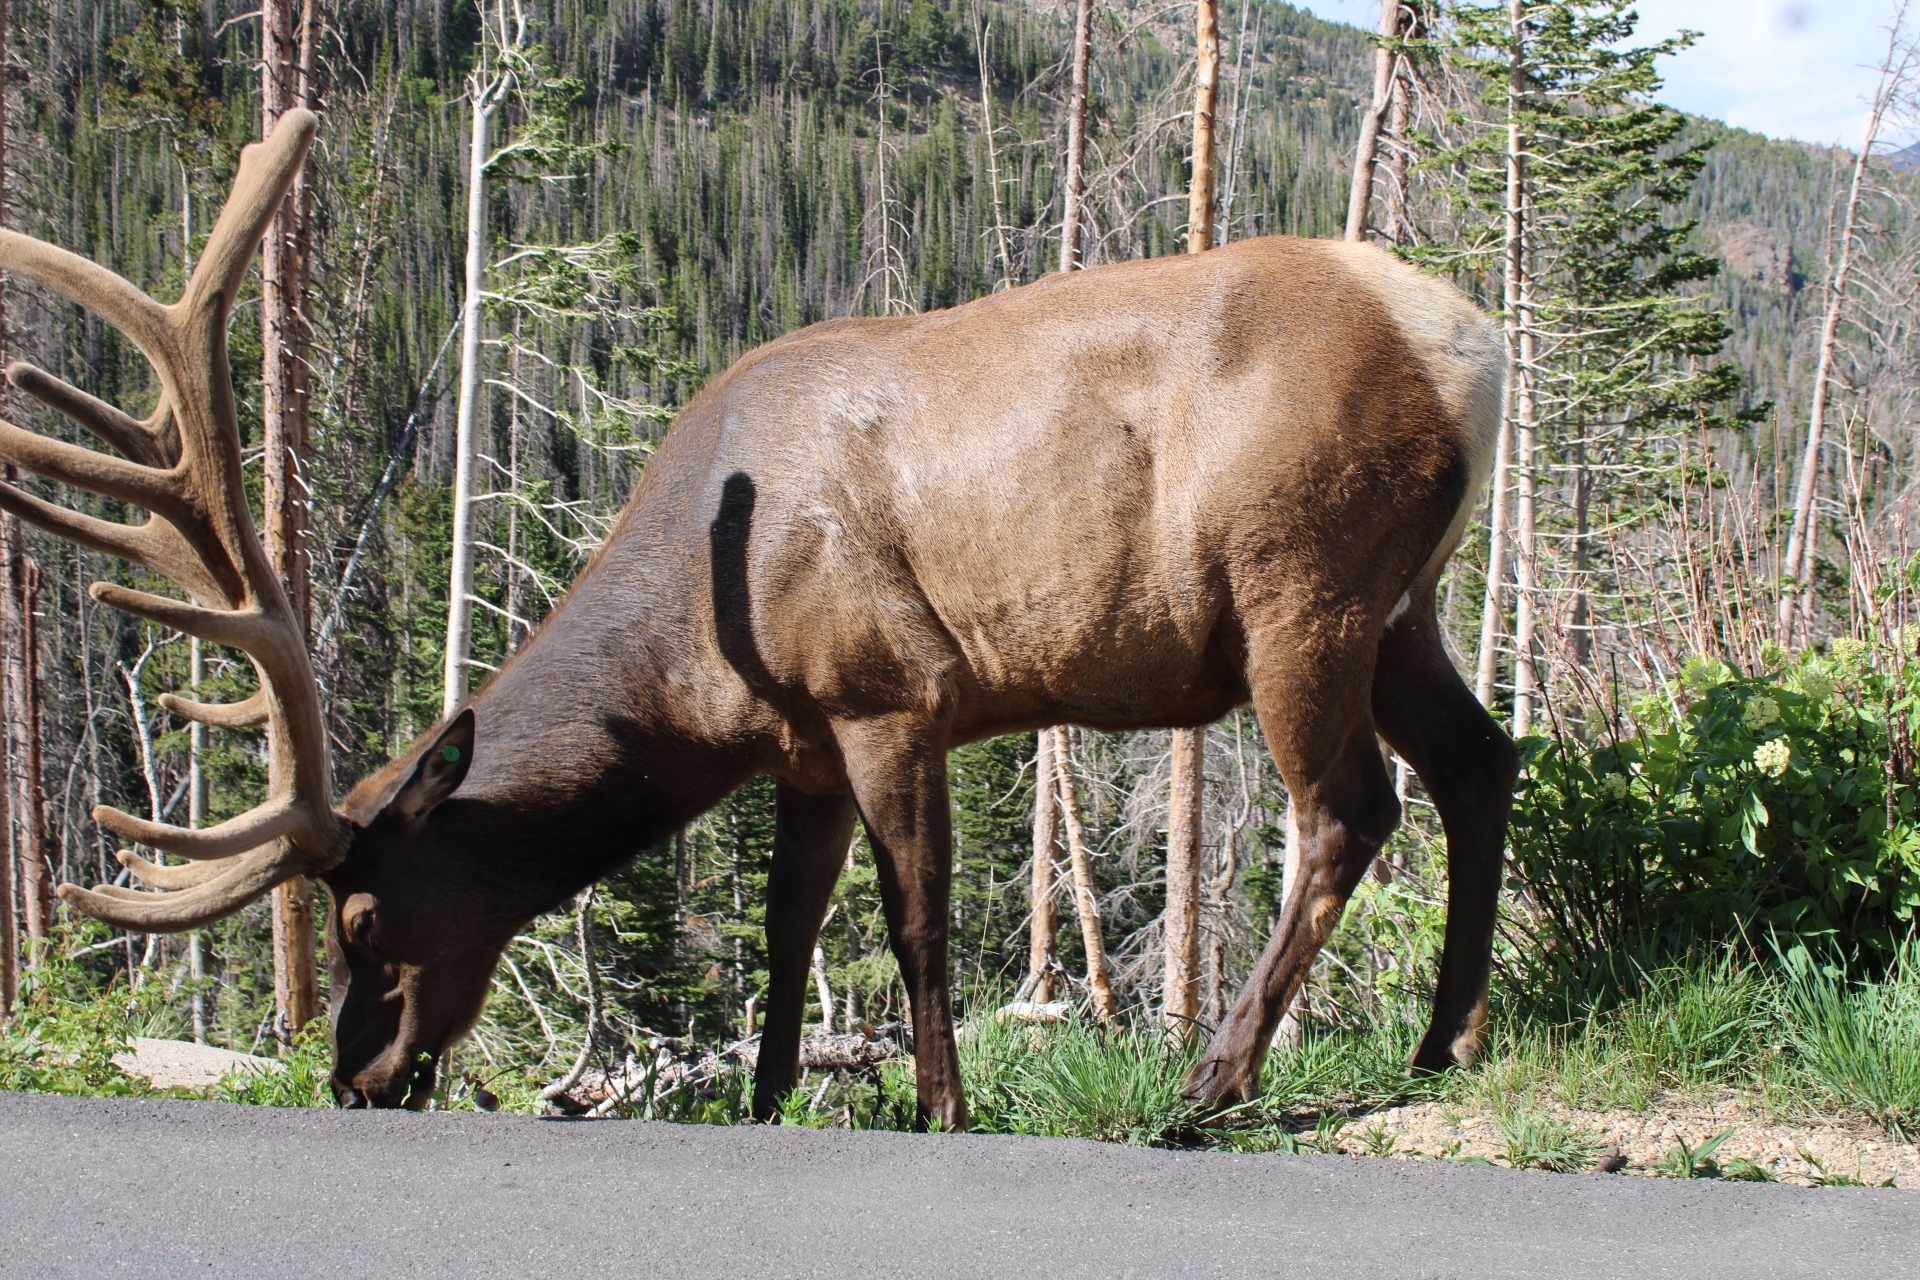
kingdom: Animalia
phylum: Chordata
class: Mammalia
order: Artiodactyla
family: Cervidae
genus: Cervus
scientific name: Cervus elaphus
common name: Red deer
